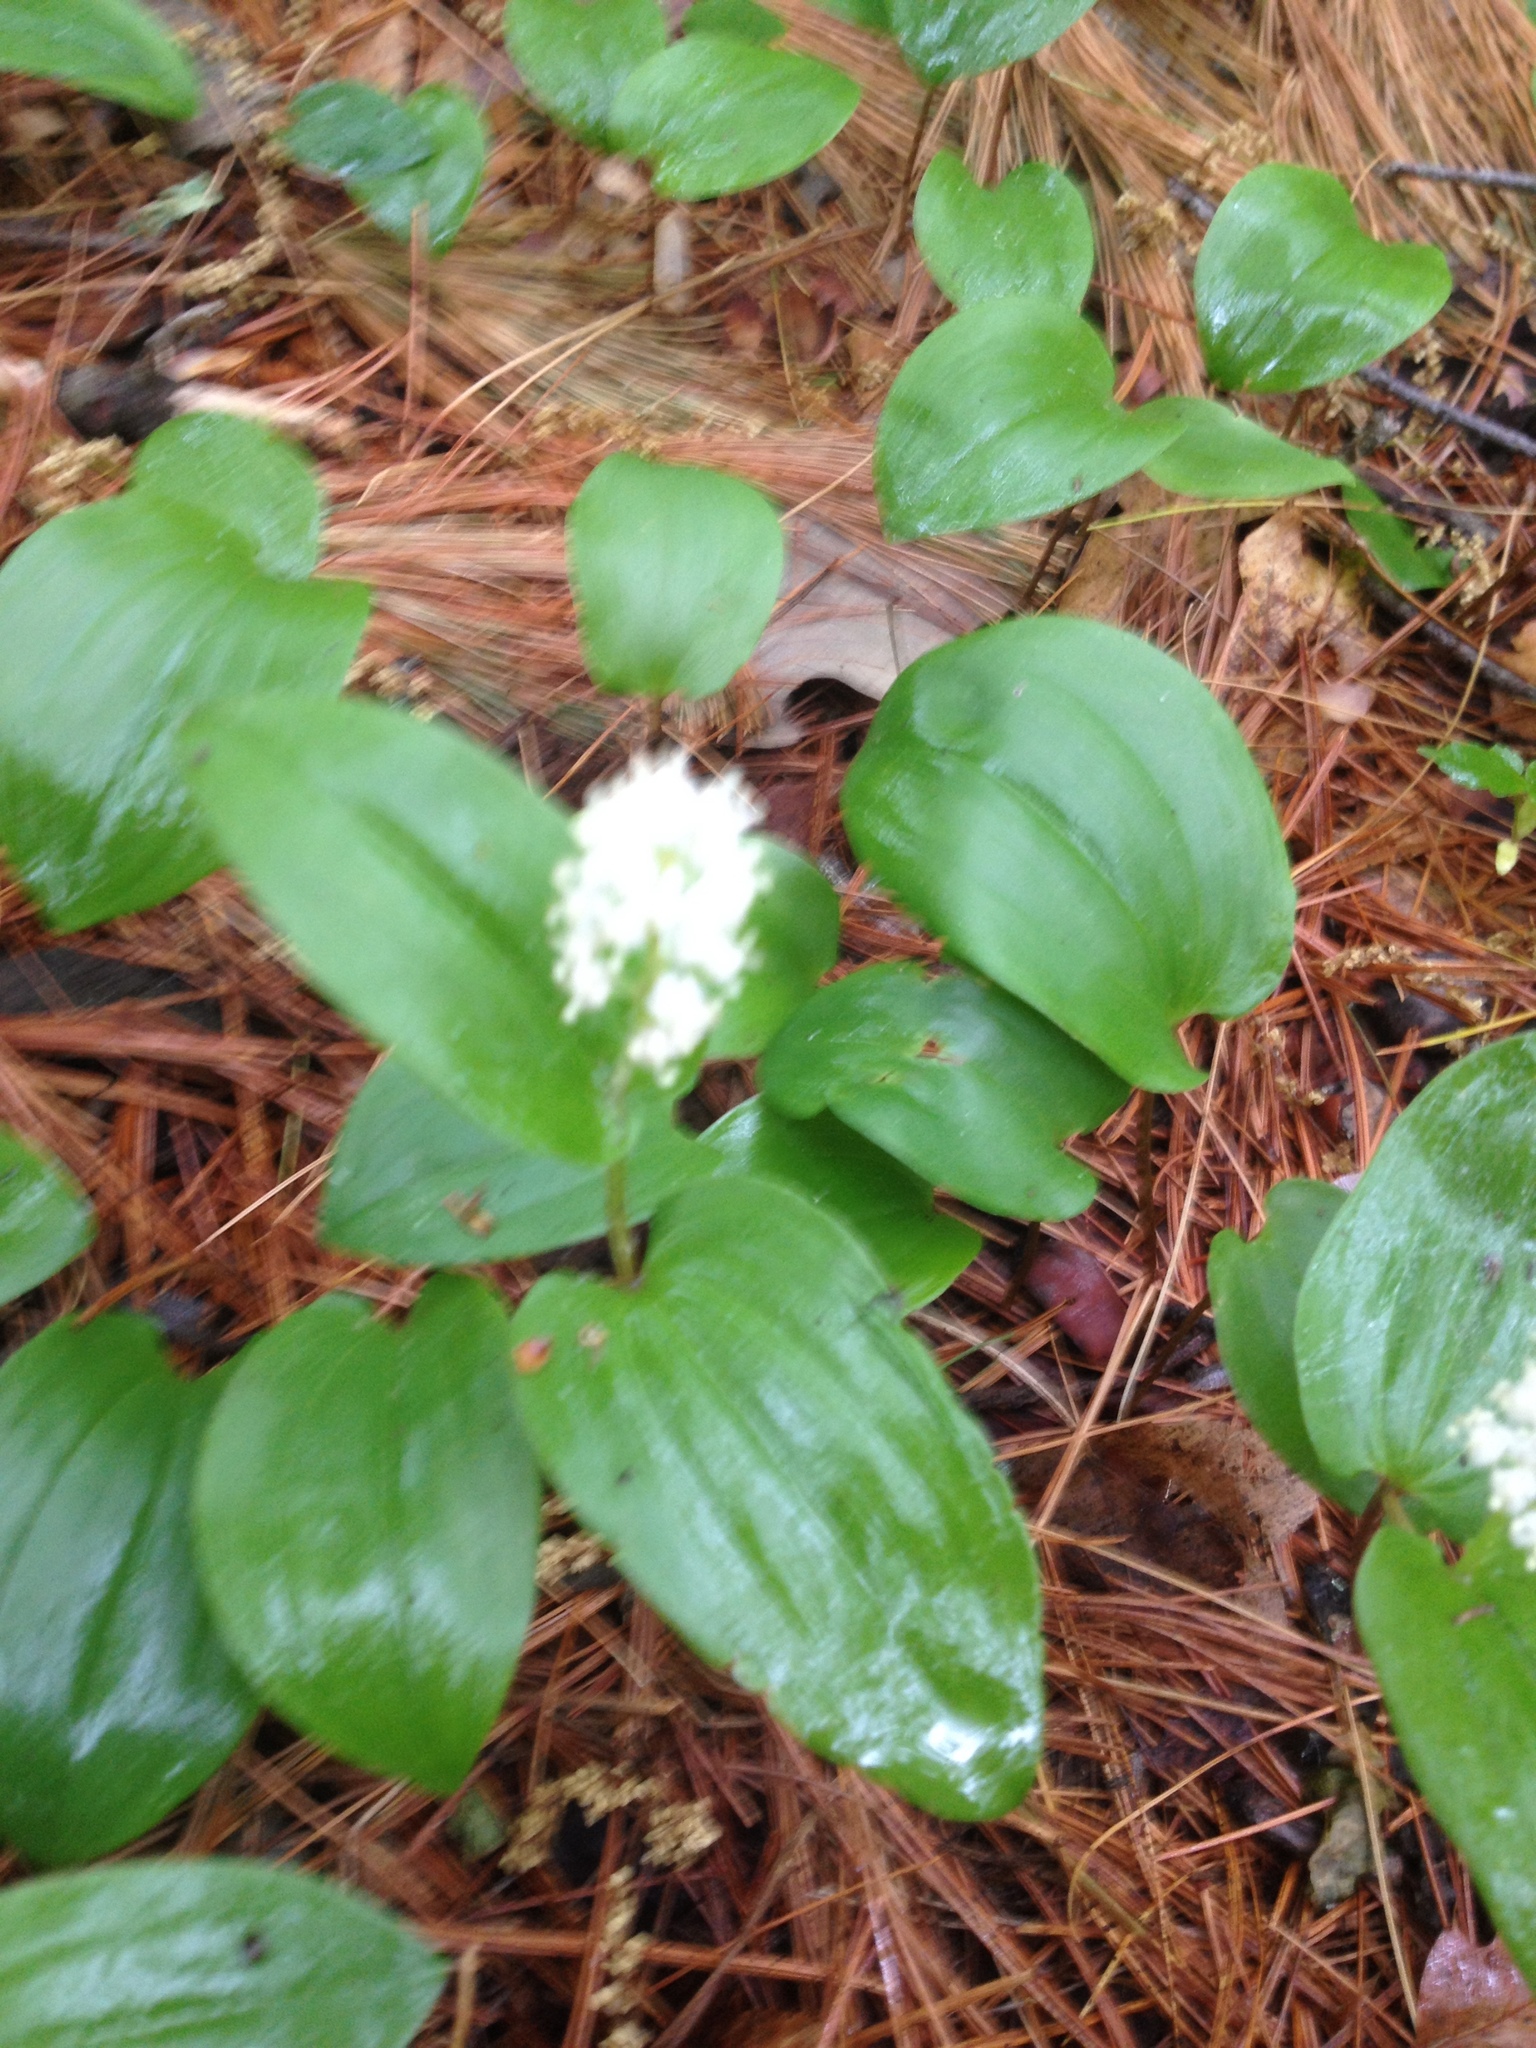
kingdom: Plantae
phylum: Tracheophyta
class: Liliopsida
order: Asparagales
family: Asparagaceae
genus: Maianthemum
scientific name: Maianthemum canadense
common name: False lily-of-the-valley
